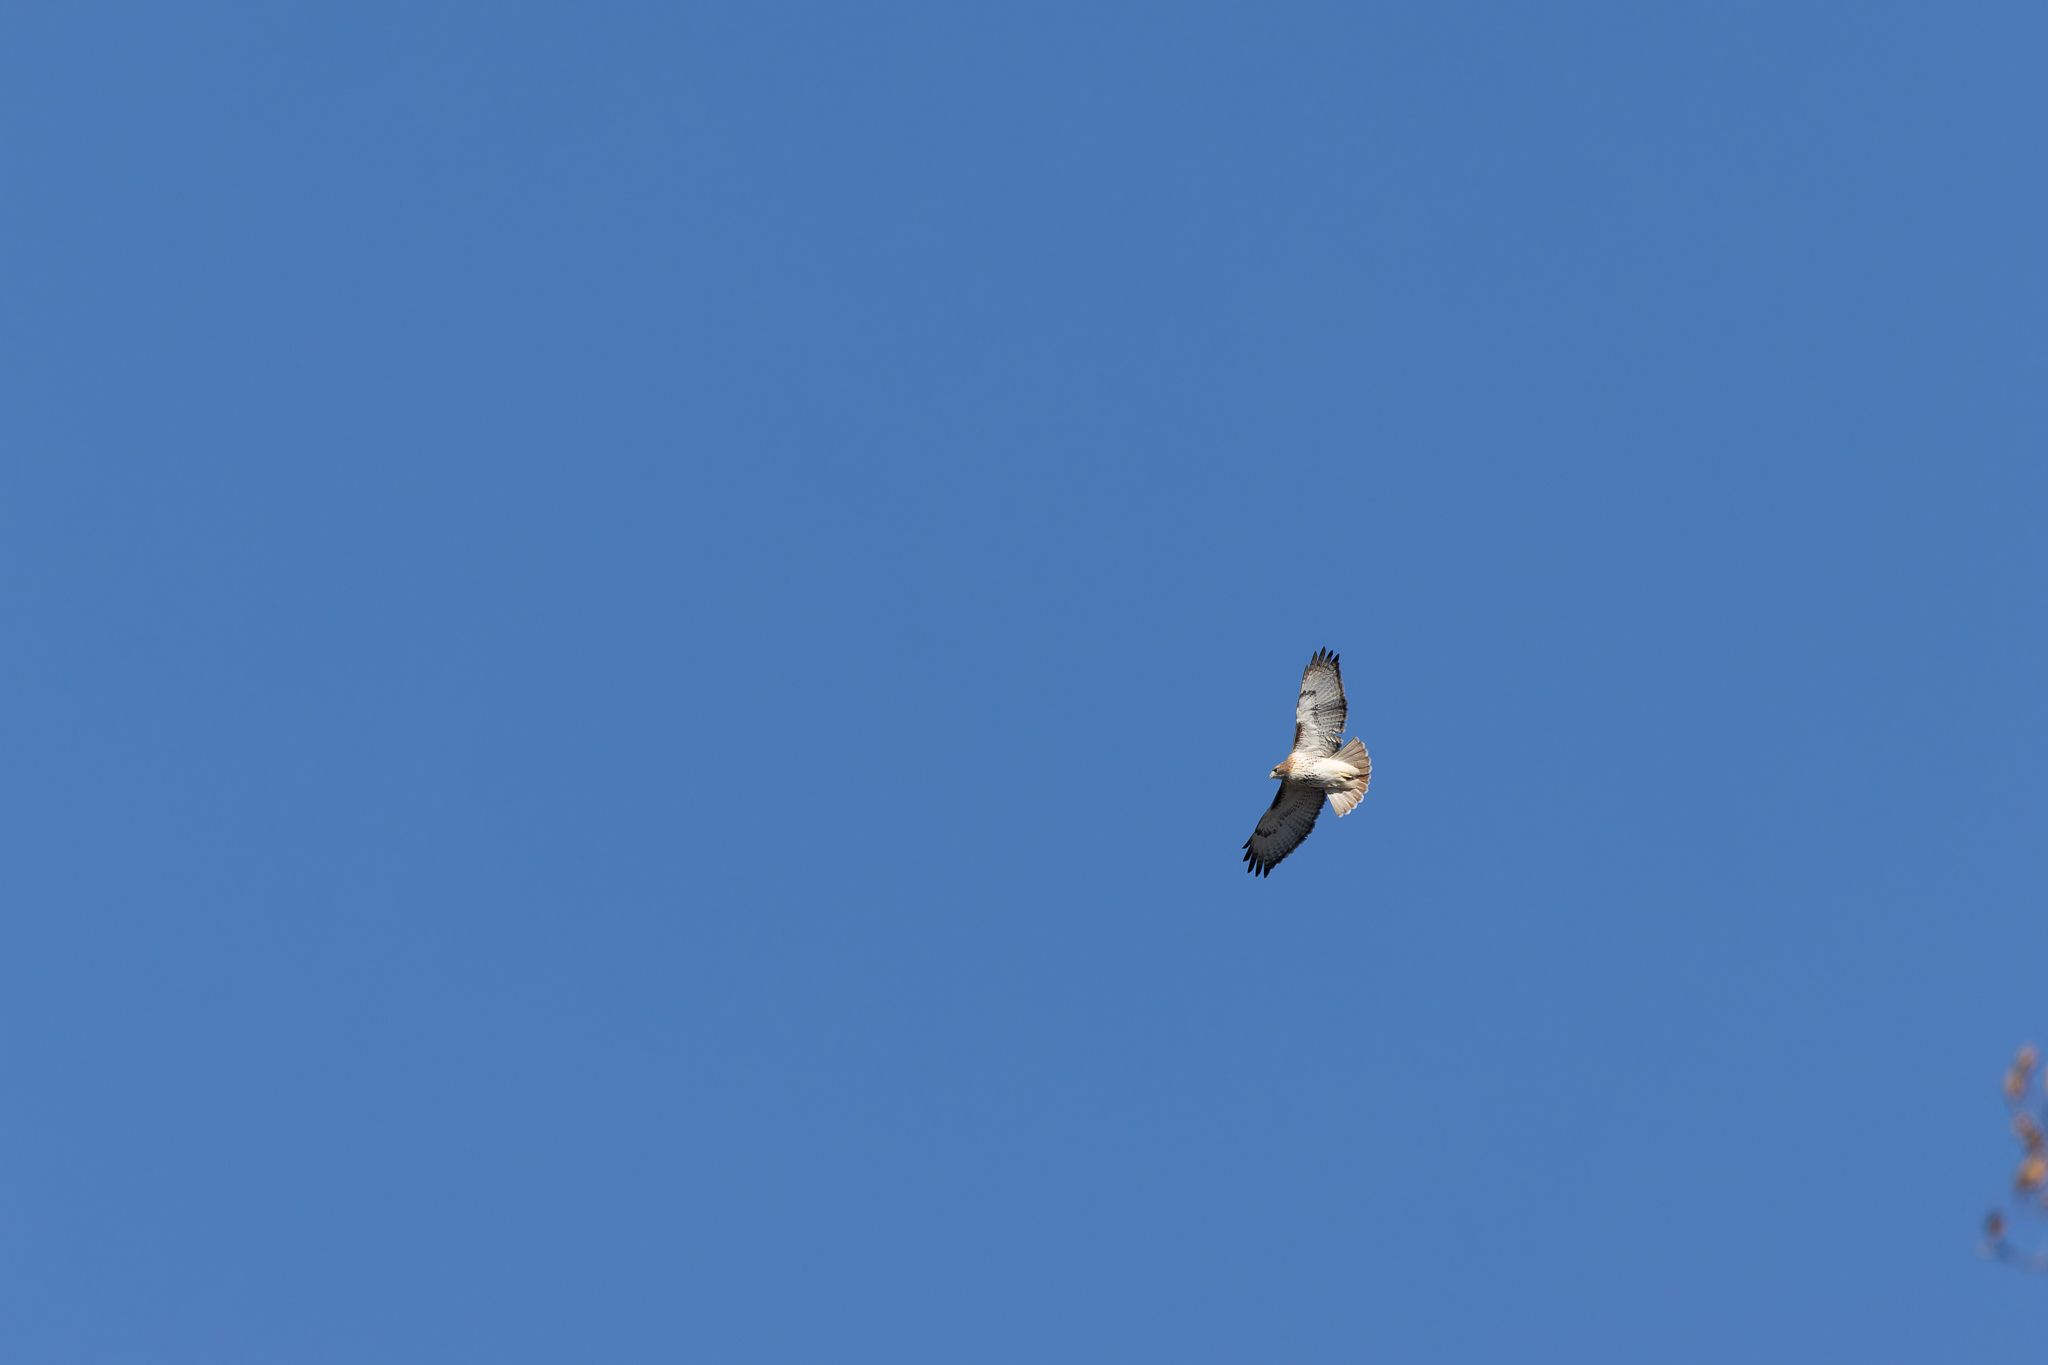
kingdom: Animalia
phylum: Chordata
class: Aves
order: Accipitriformes
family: Accipitridae
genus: Buteo
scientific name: Buteo jamaicensis
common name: Red-tailed hawk
